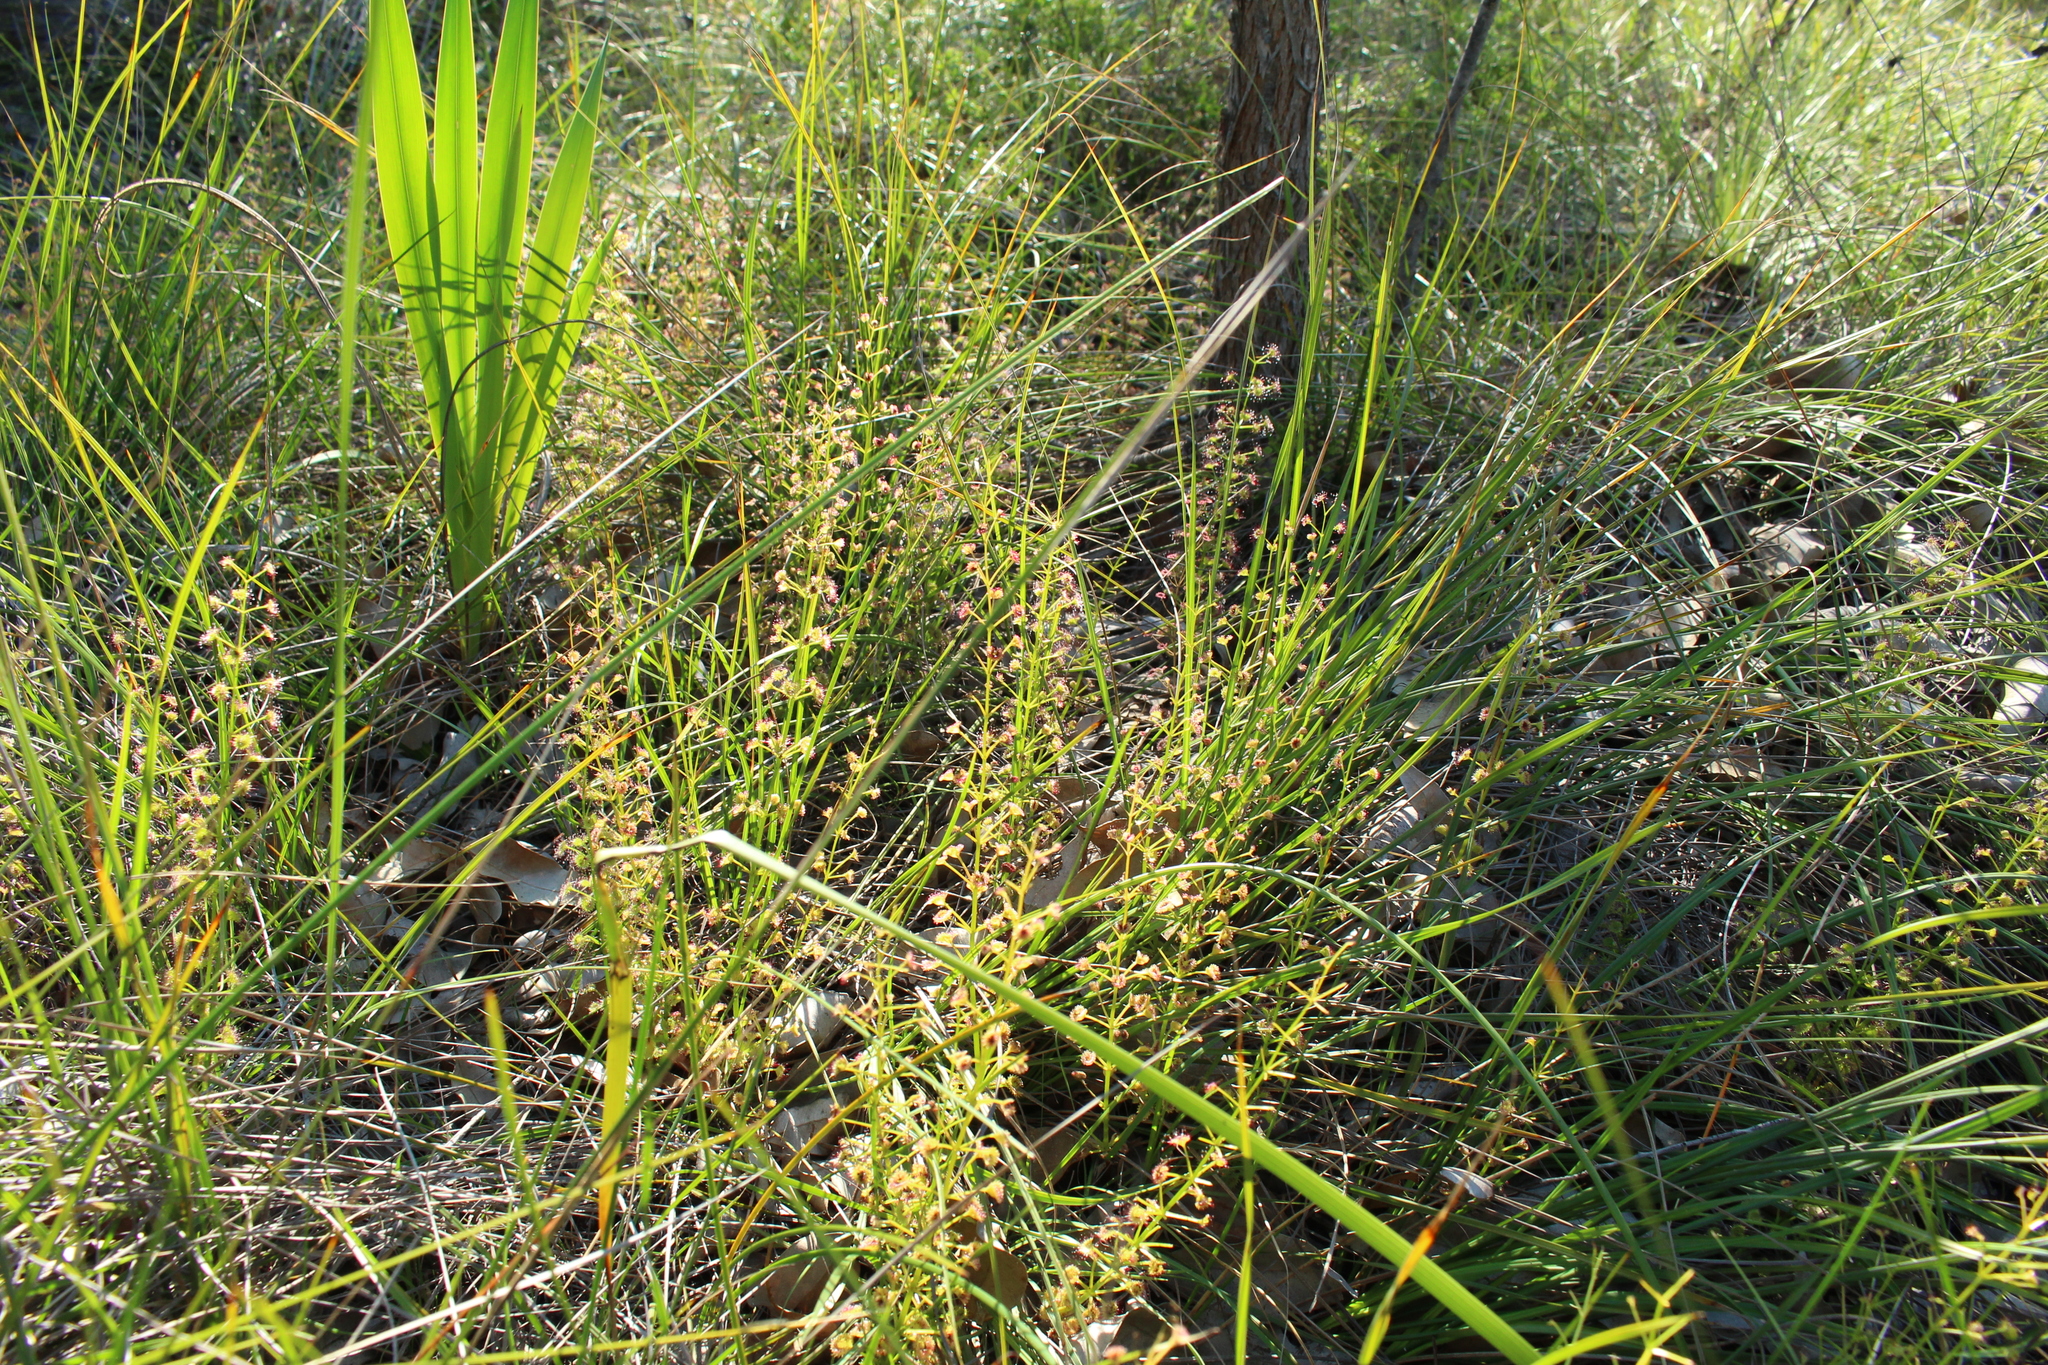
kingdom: Plantae
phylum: Tracheophyta
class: Magnoliopsida
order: Caryophyllales
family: Droseraceae
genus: Drosera
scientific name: Drosera stolonifera
